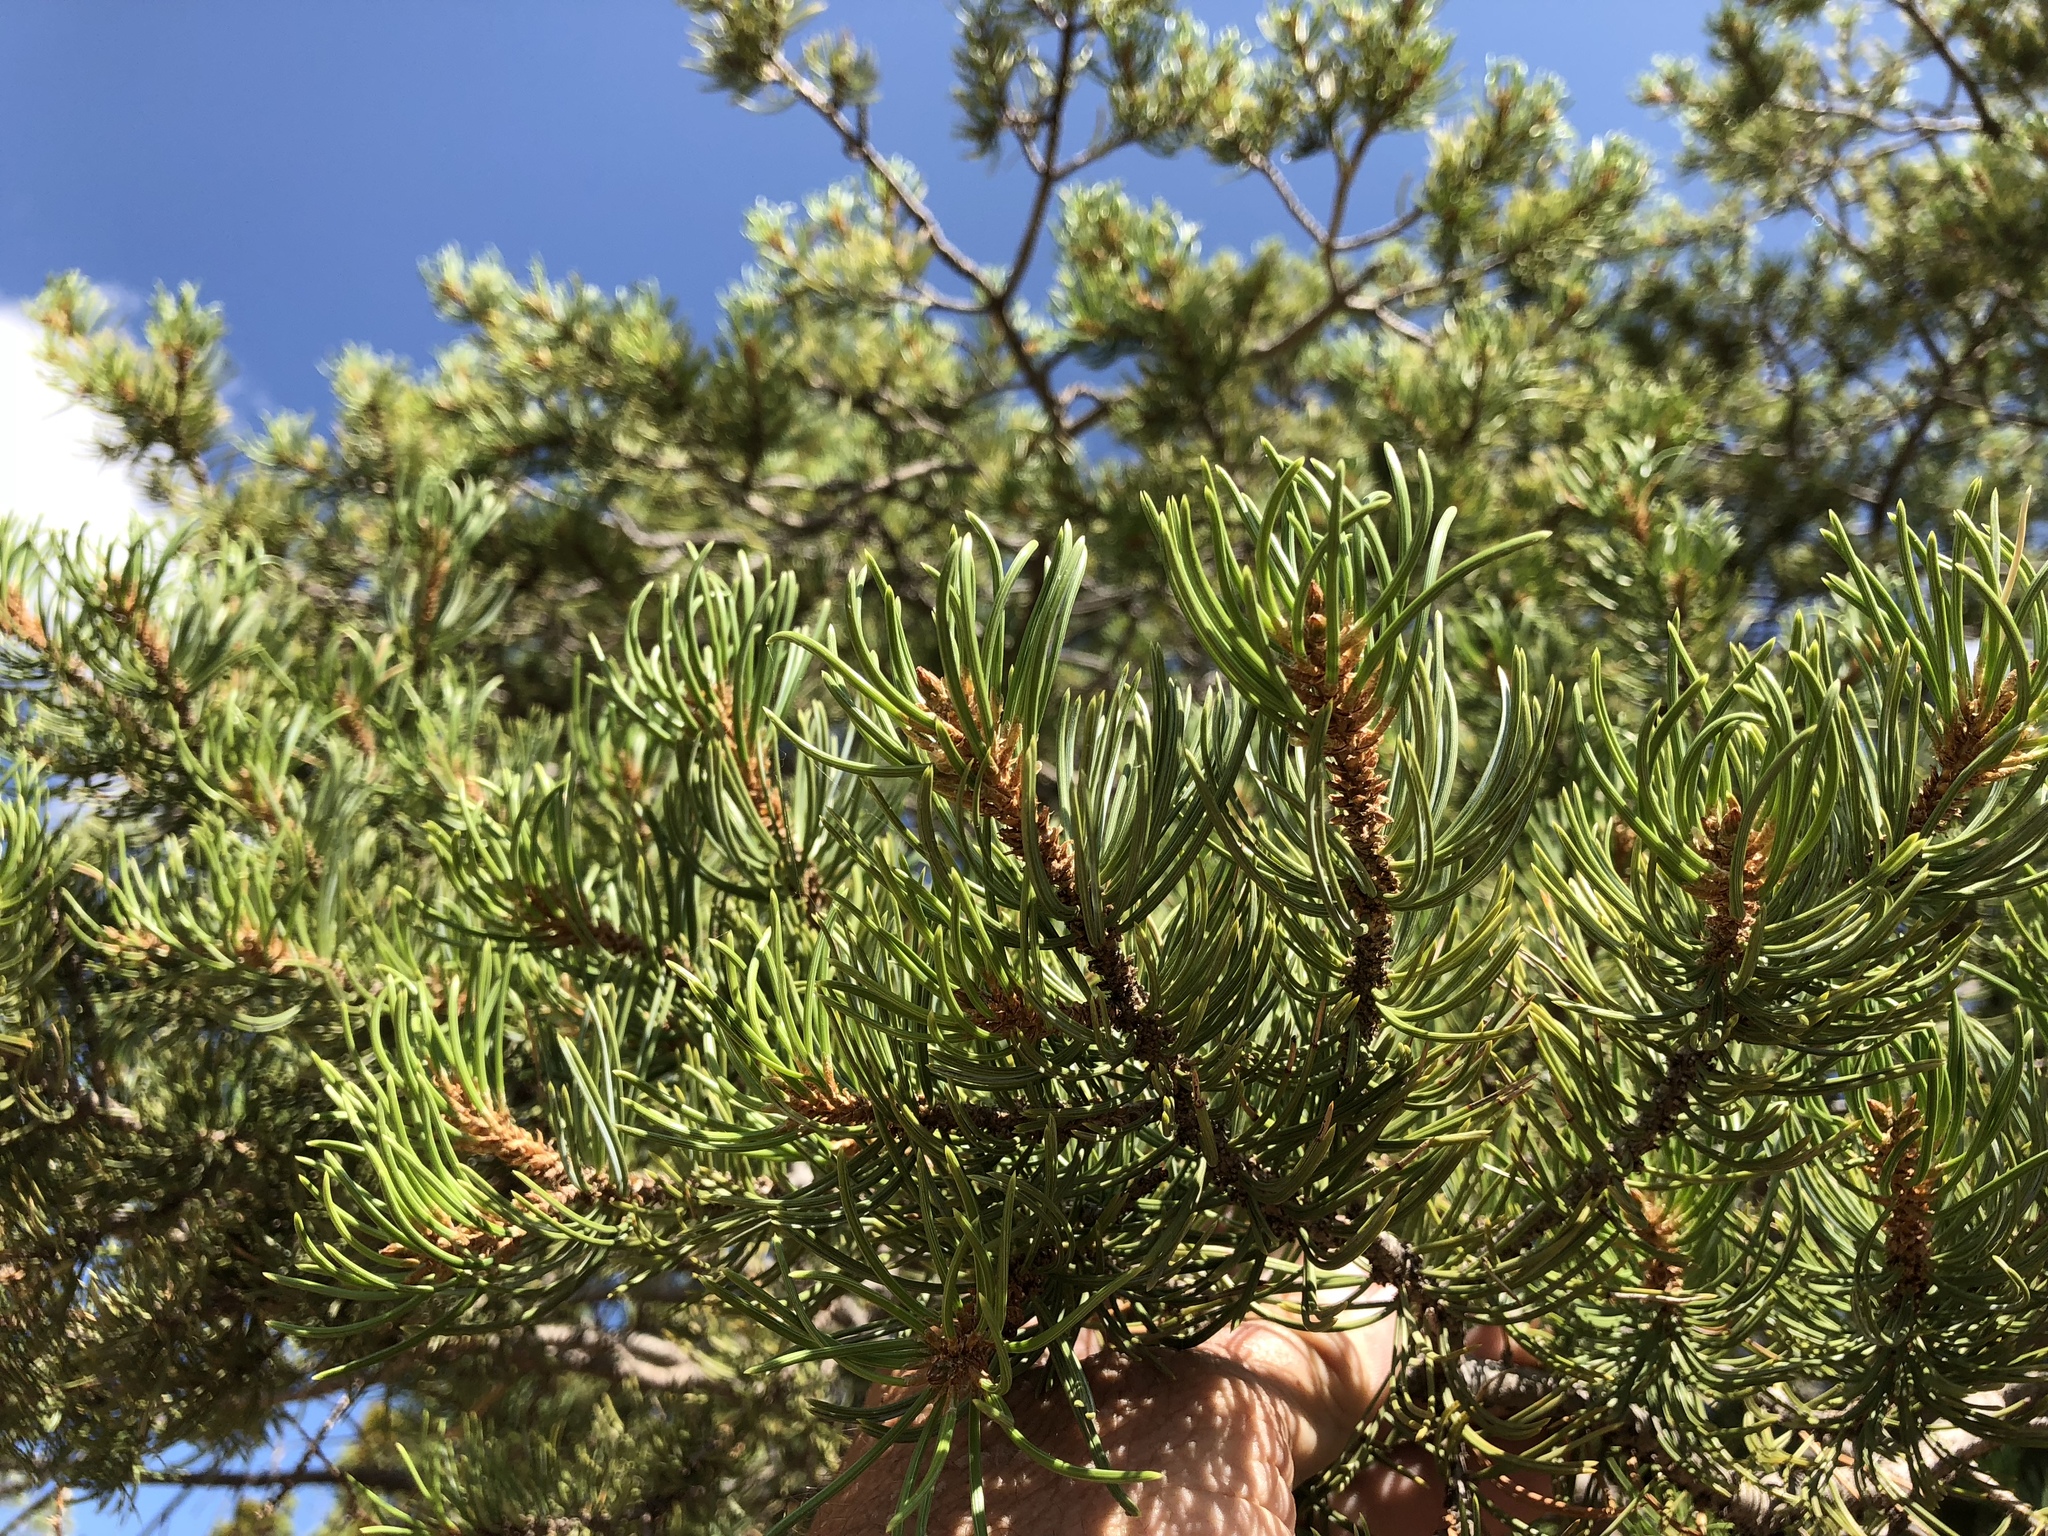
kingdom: Plantae
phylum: Tracheophyta
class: Pinopsida
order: Pinales
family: Pinaceae
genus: Pinus
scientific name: Pinus edulis
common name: Colorado pinyon
